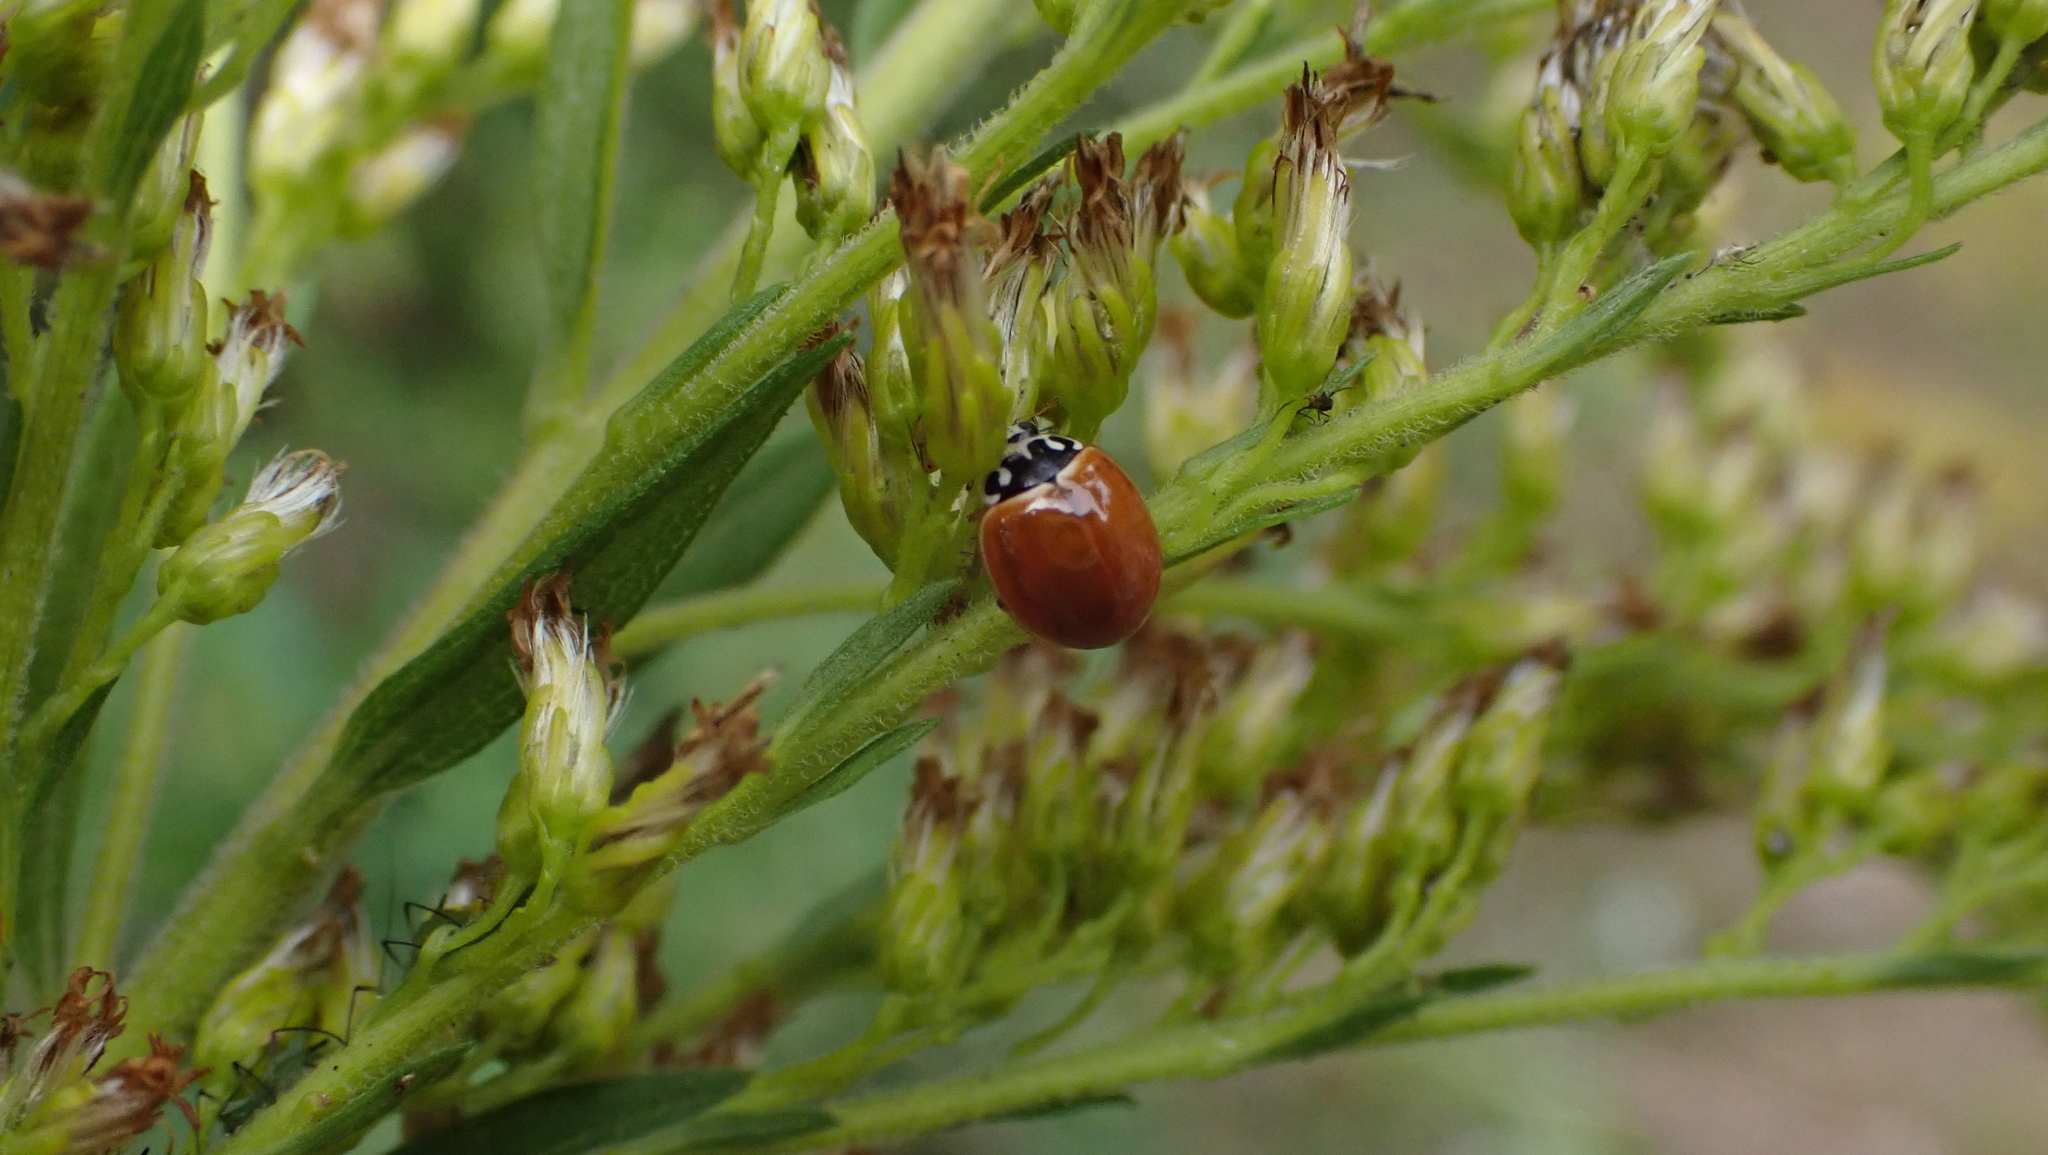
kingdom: Animalia
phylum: Arthropoda
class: Insecta
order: Coleoptera
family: Coccinellidae
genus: Cycloneda
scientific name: Cycloneda munda
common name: Polished lady beetle
